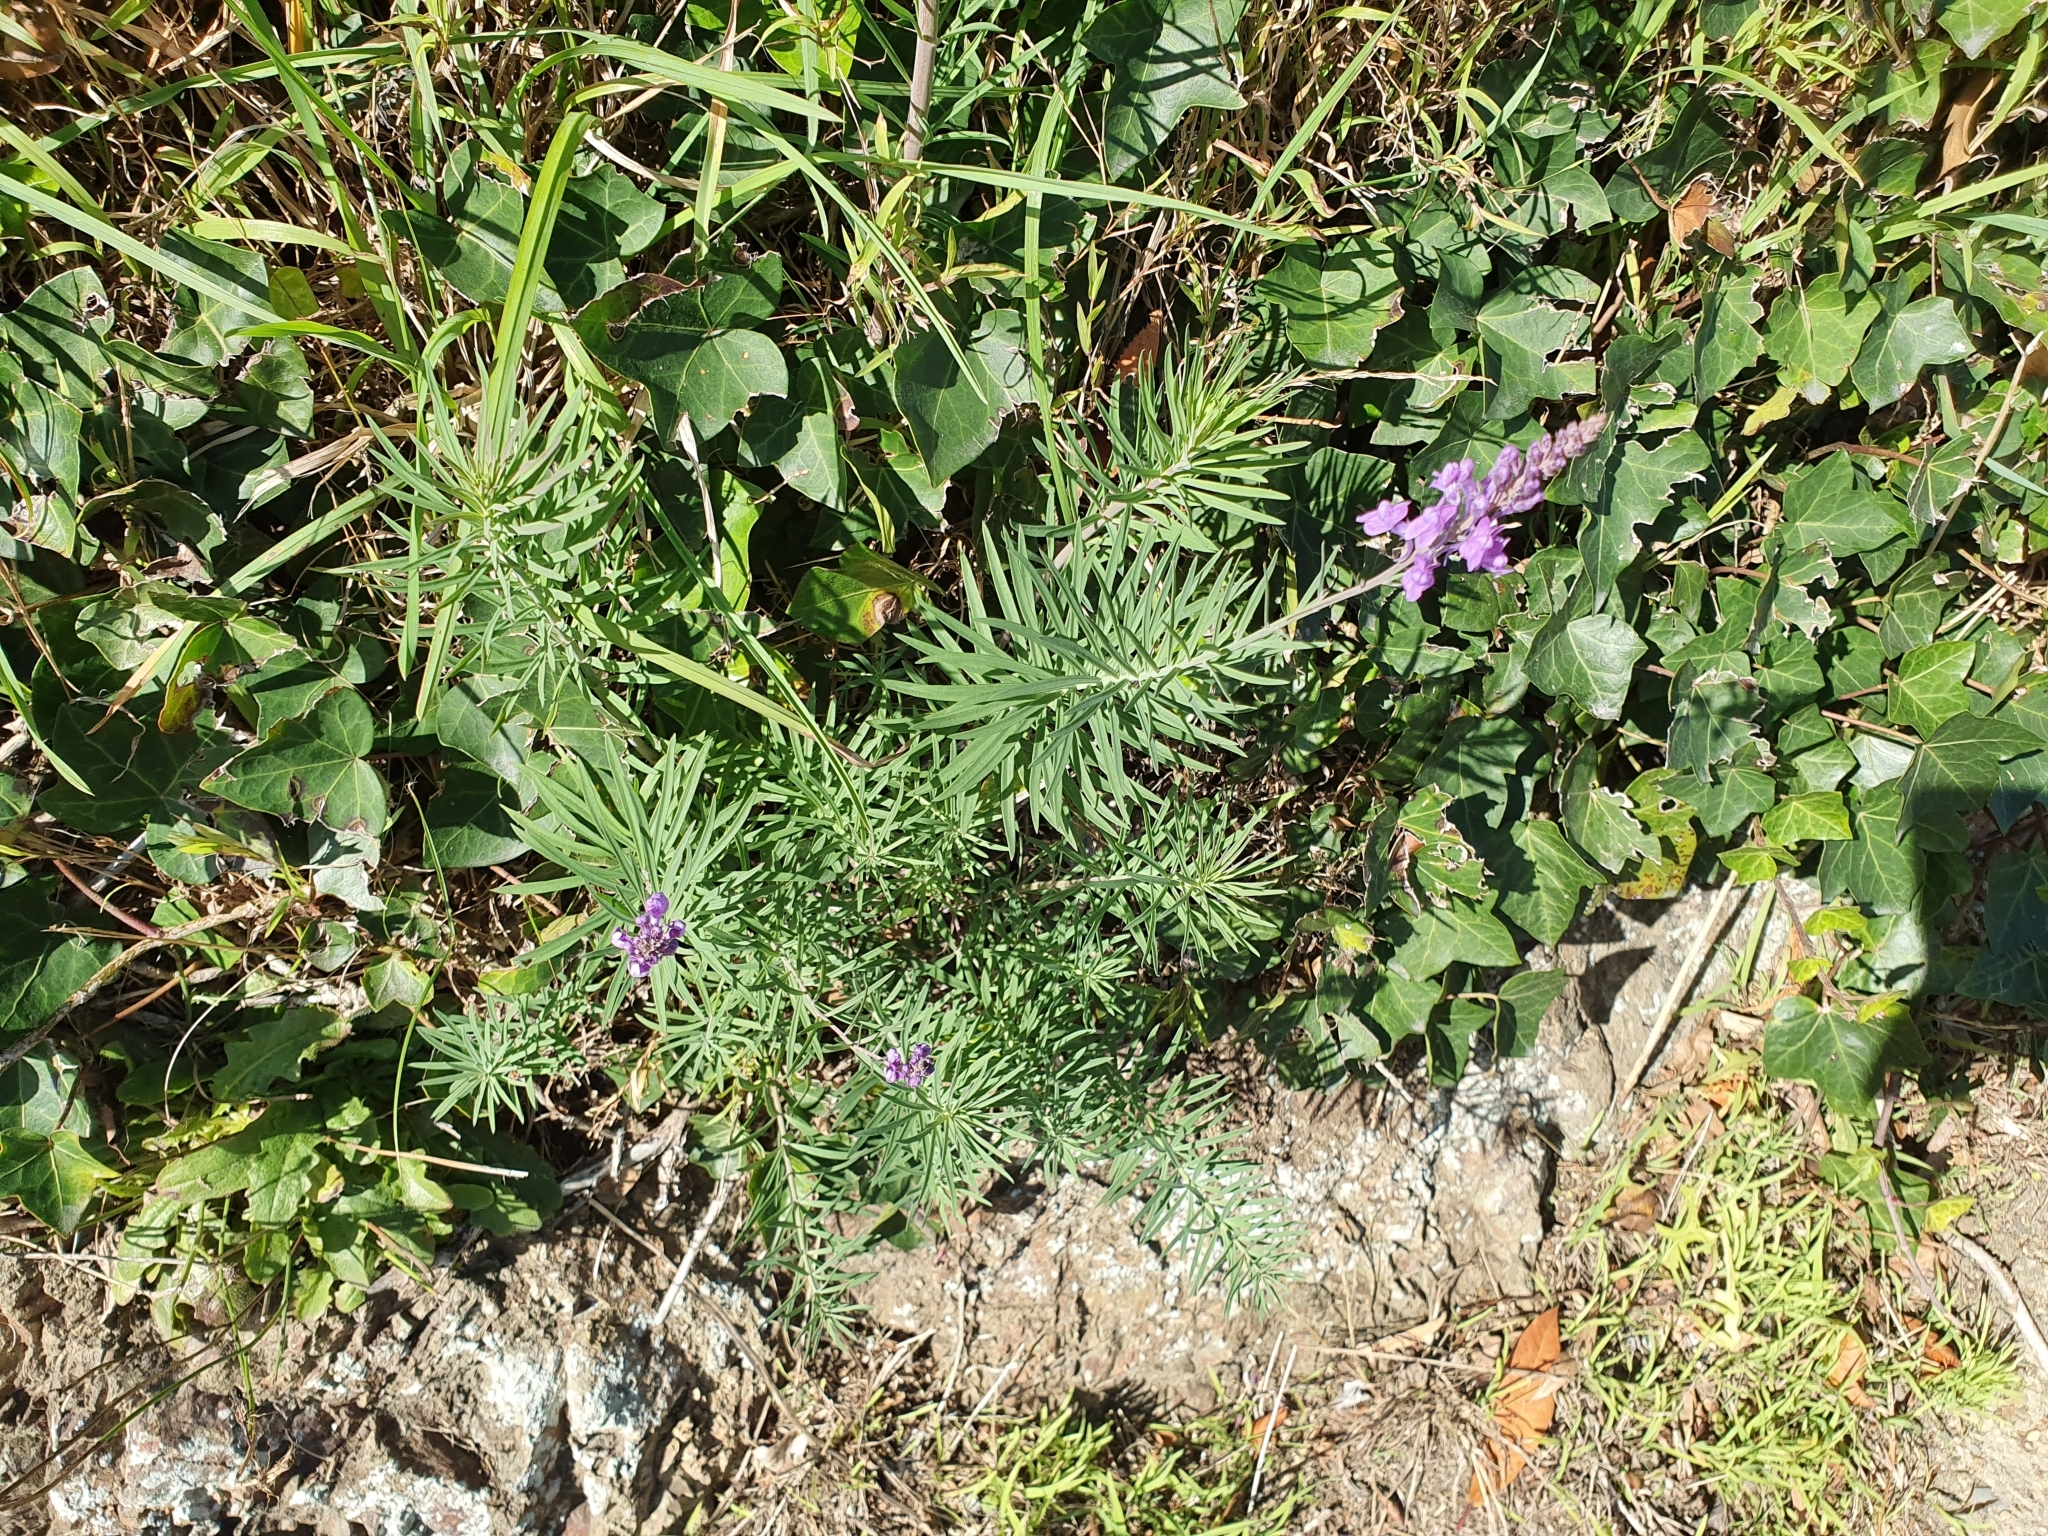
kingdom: Plantae
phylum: Tracheophyta
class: Magnoliopsida
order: Lamiales
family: Plantaginaceae
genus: Linaria
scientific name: Linaria purpurea
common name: Purple toadflax
